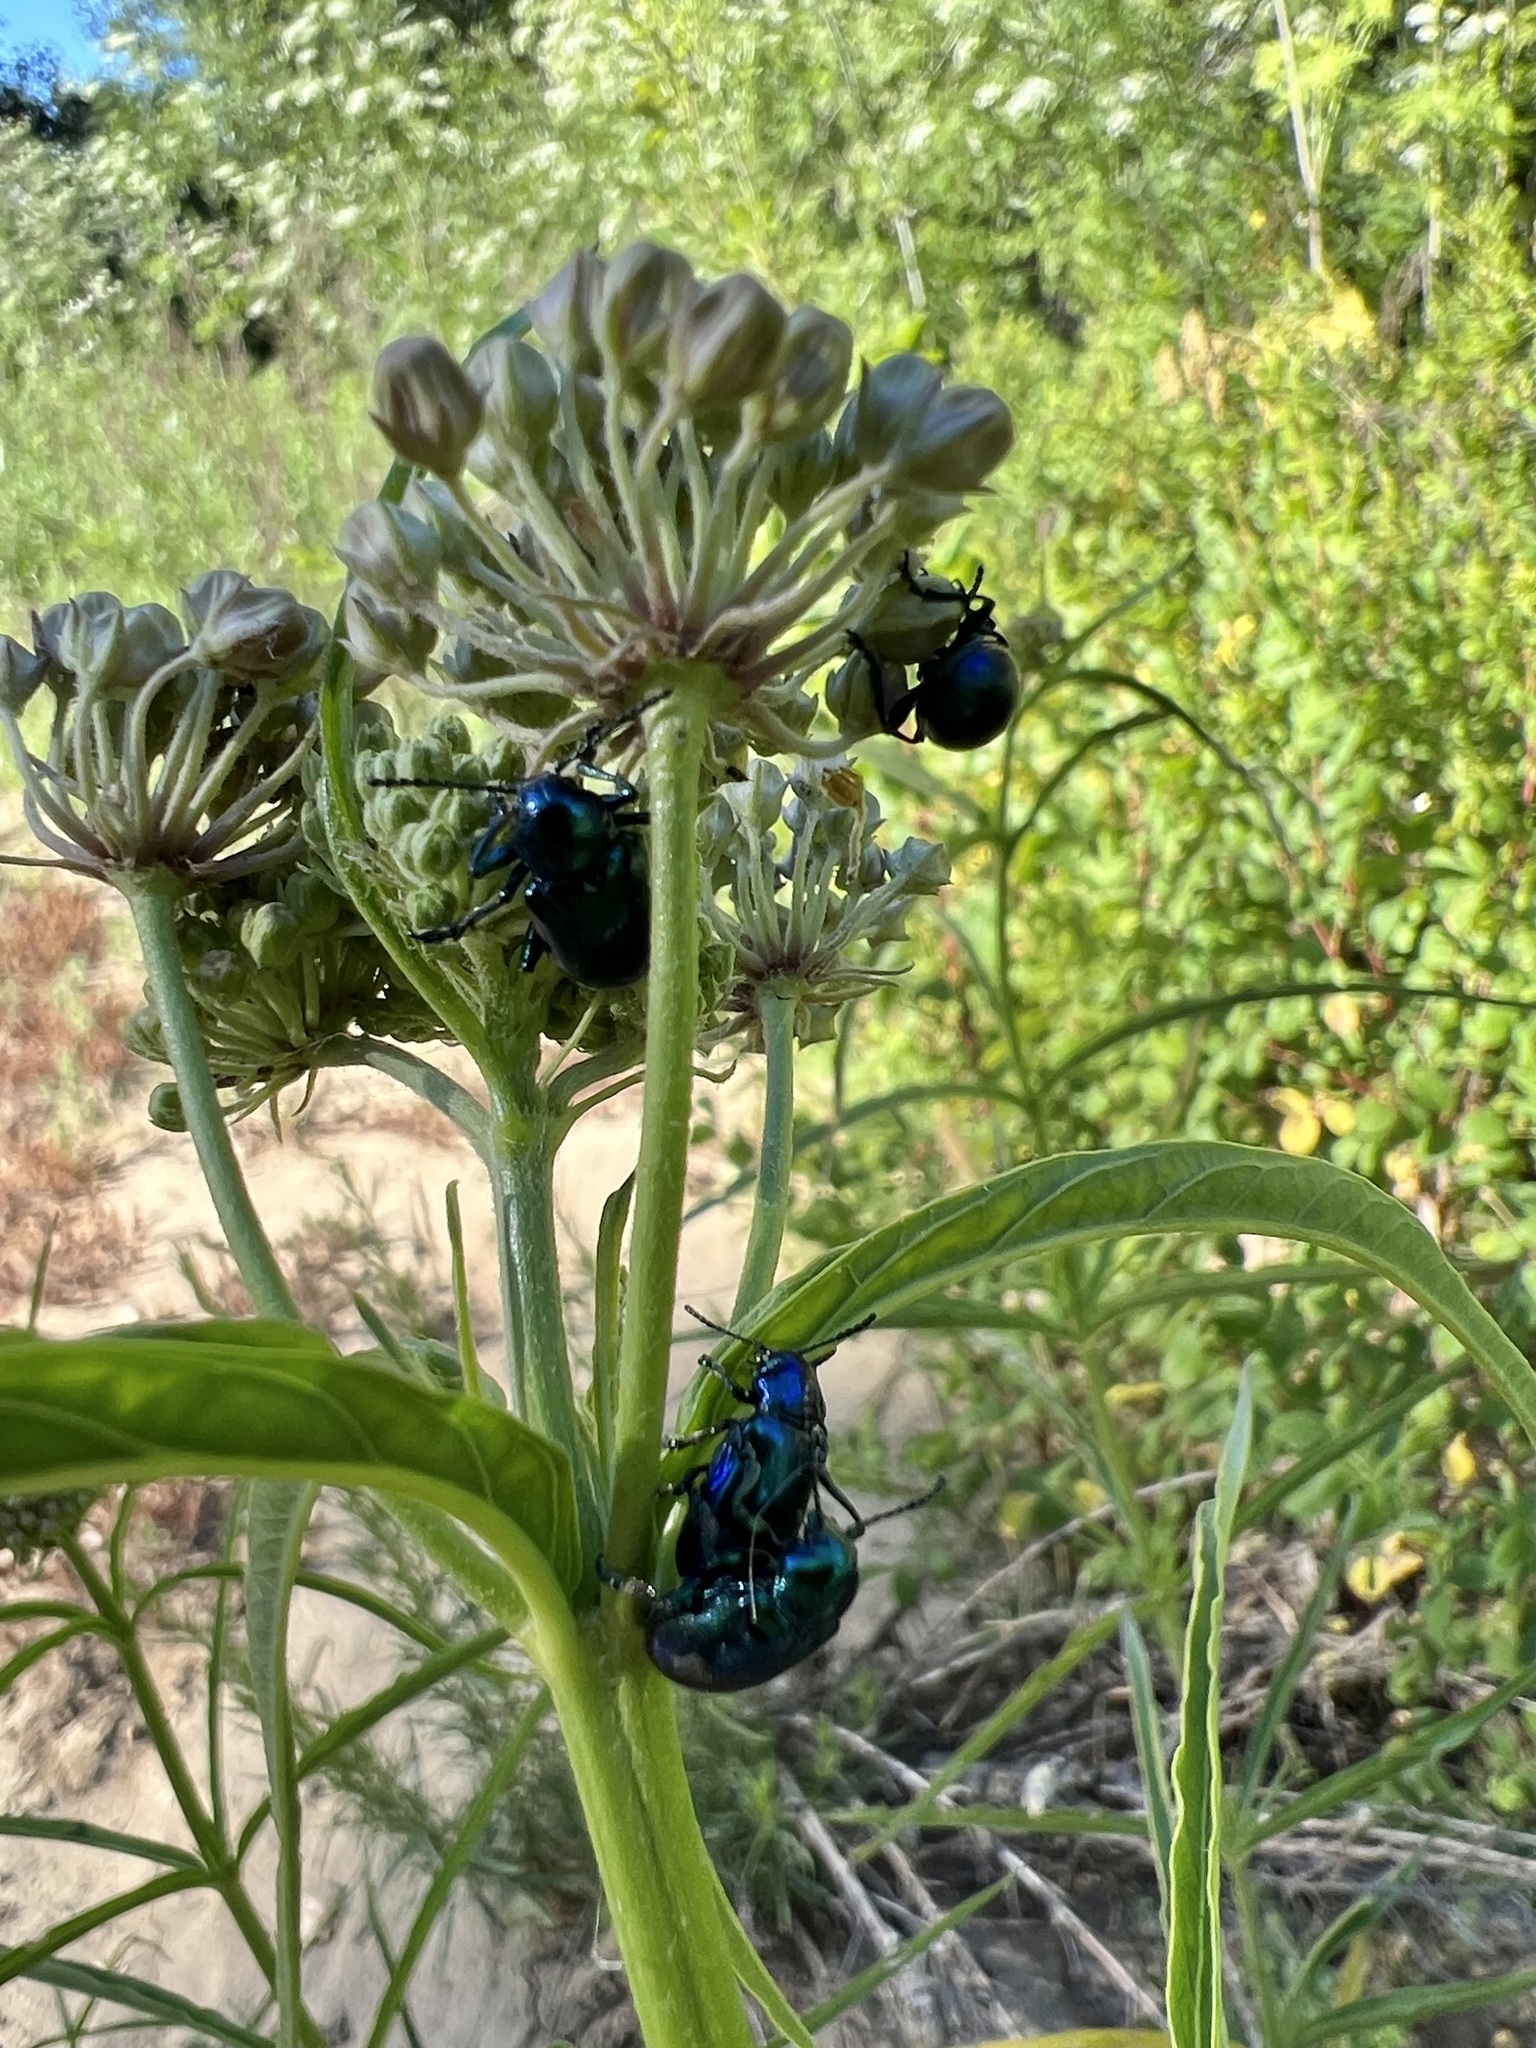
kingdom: Animalia
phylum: Arthropoda
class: Insecta
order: Coleoptera
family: Chrysomelidae
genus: Chrysochus
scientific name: Chrysochus cobaltinus
